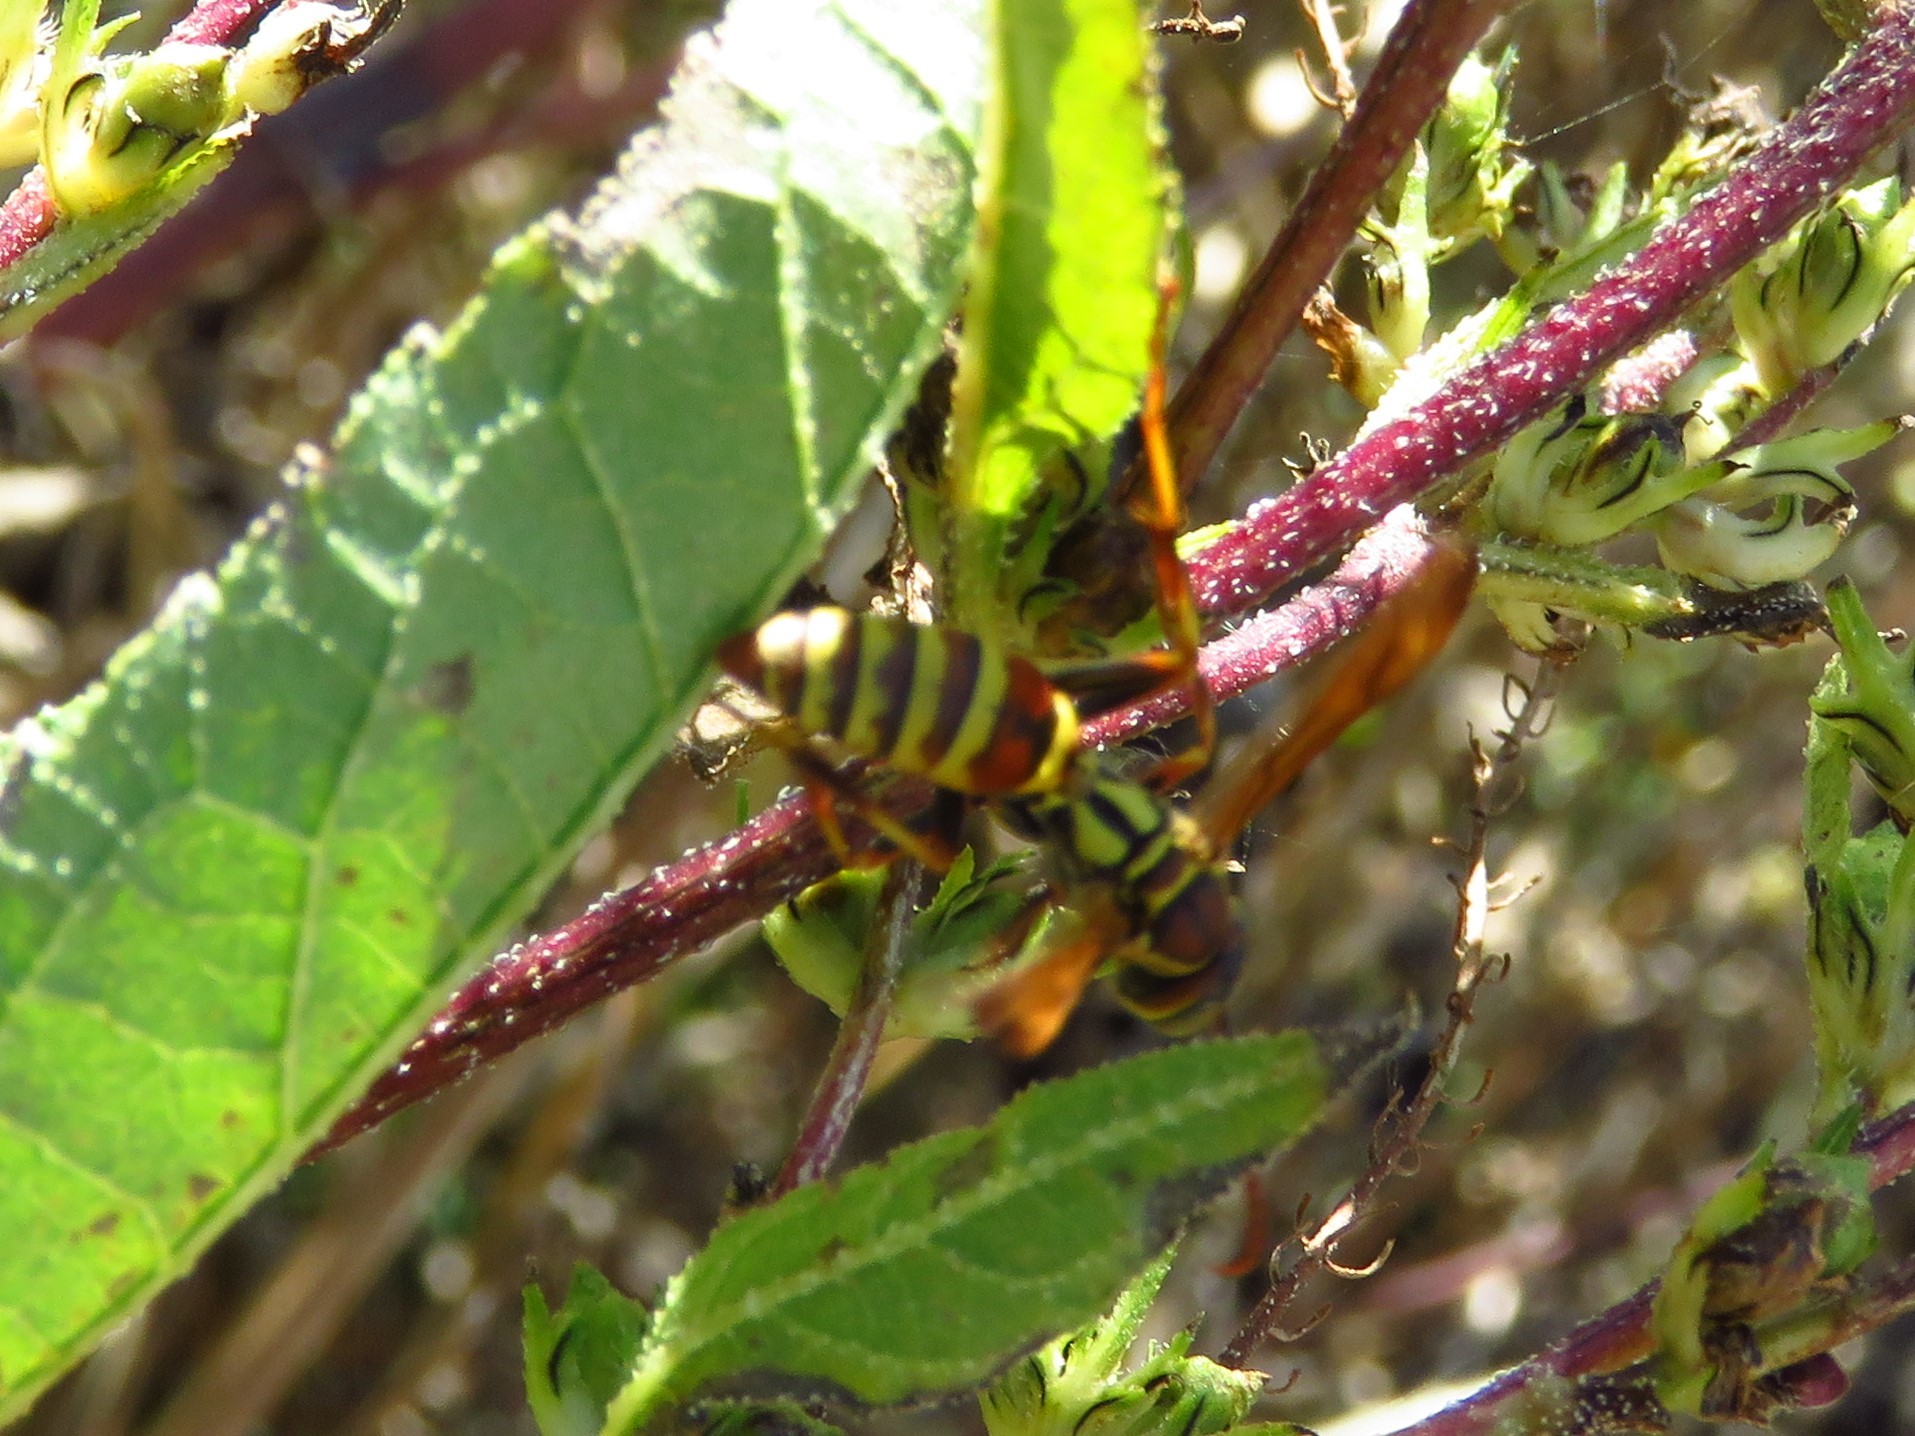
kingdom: Animalia
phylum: Arthropoda
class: Insecta
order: Hymenoptera
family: Eumenidae
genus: Polistes
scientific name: Polistes exclamans
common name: Paper wasp
